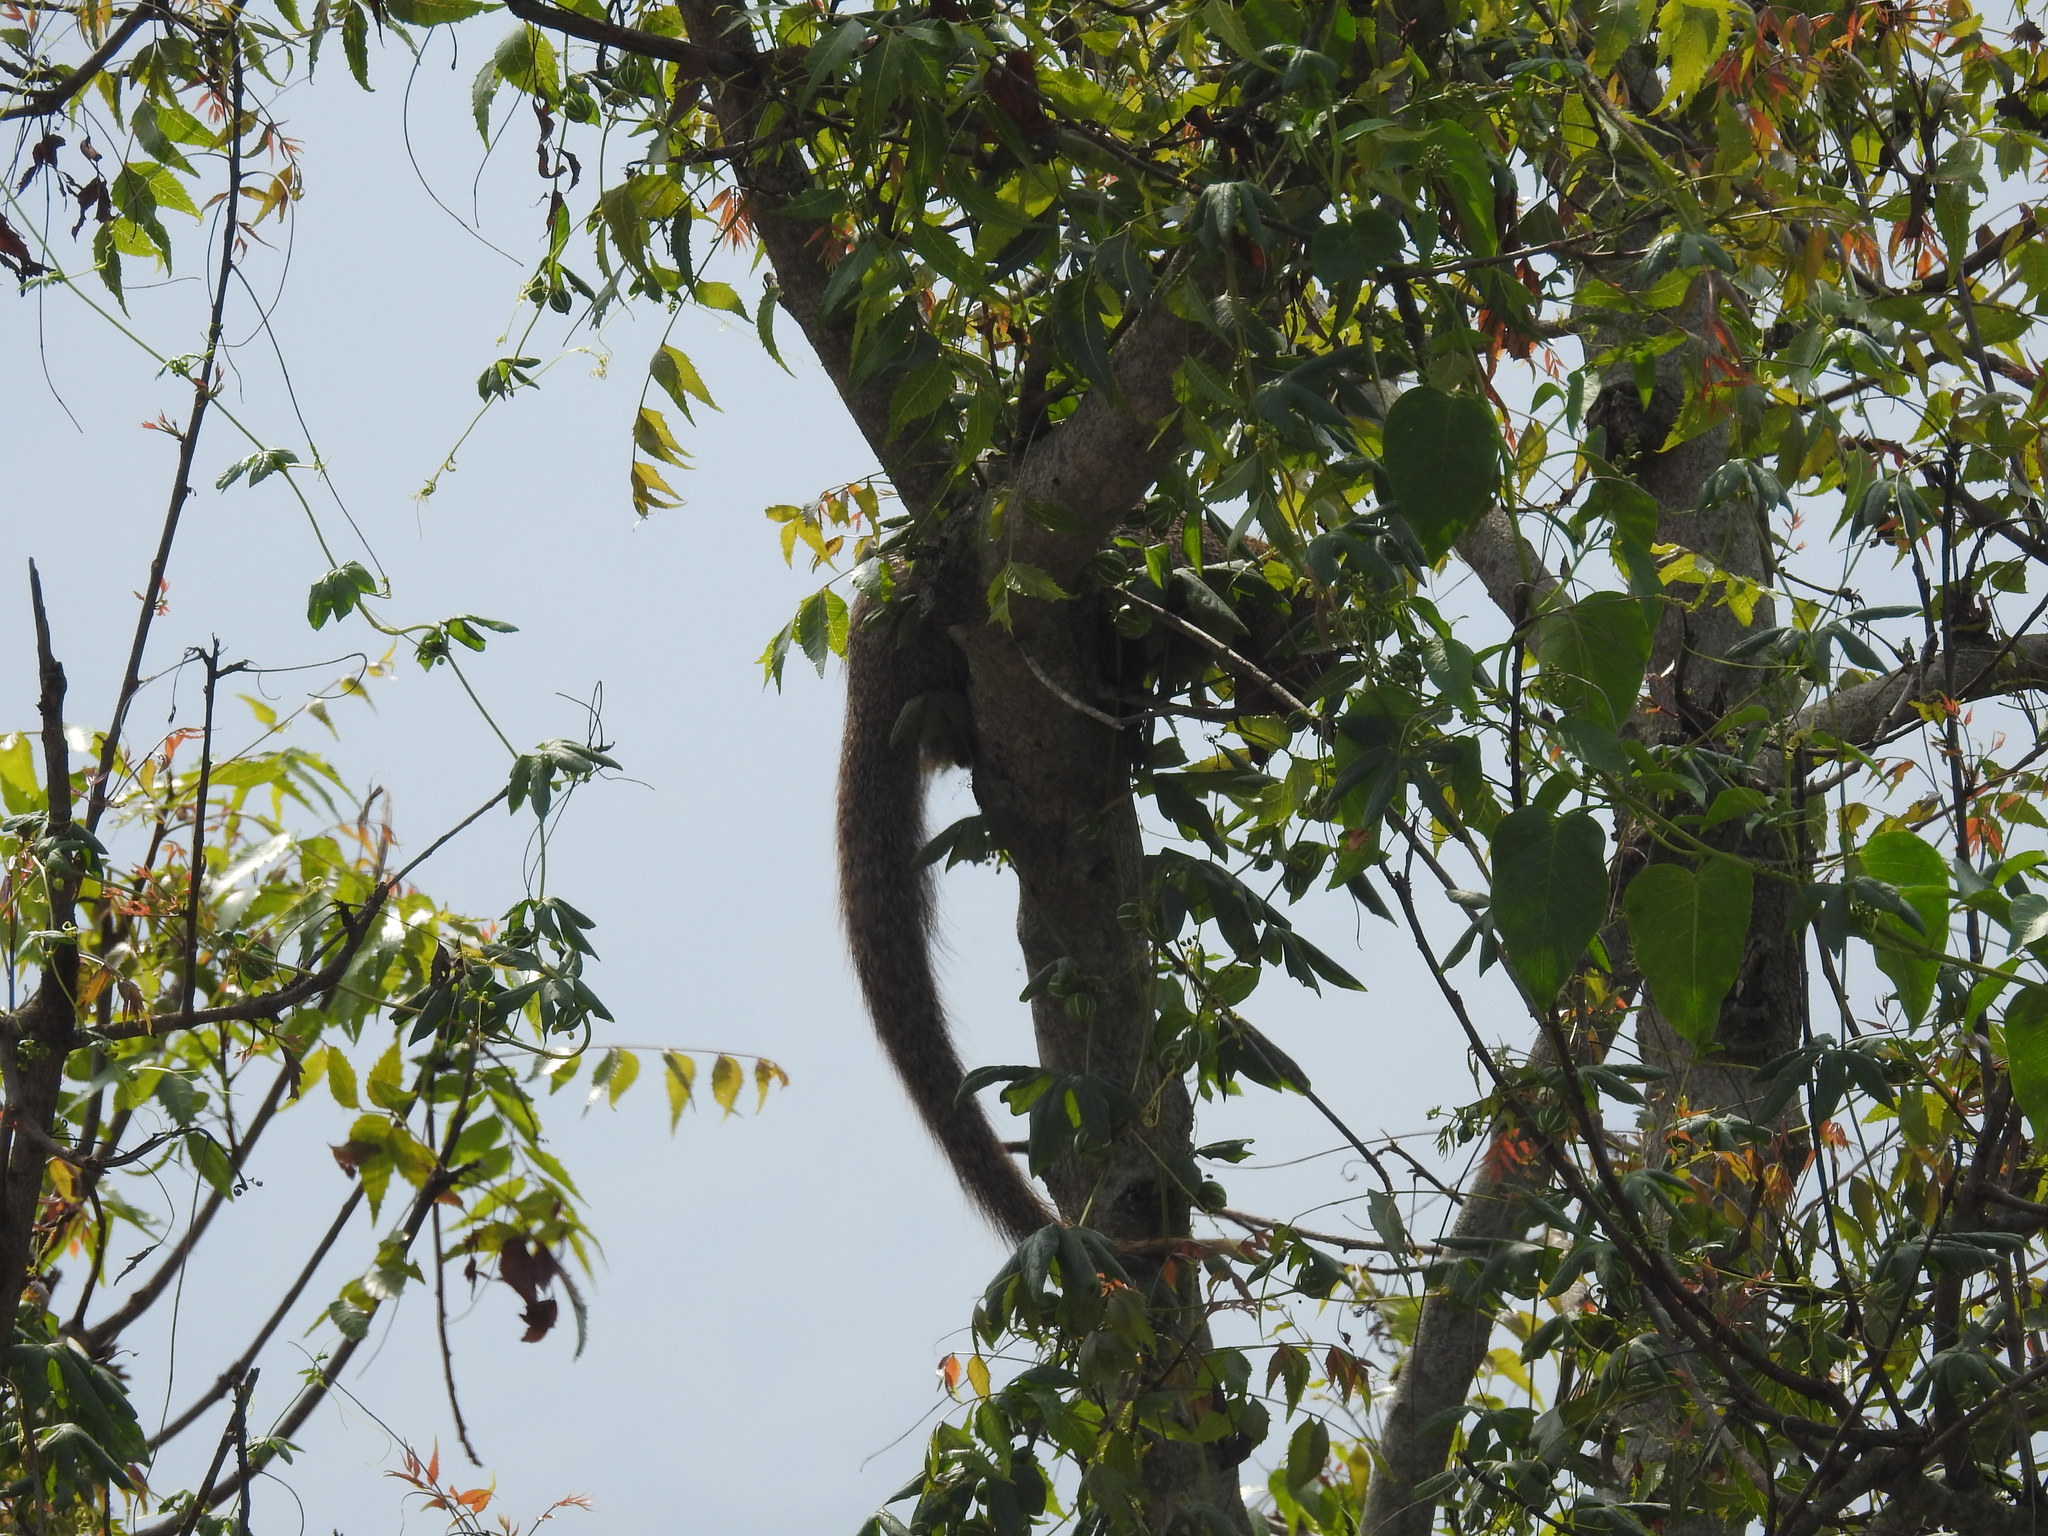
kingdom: Animalia
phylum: Chordata
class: Mammalia
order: Carnivora
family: Herpestidae
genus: Herpestes
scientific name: Herpestes edwardsi
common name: Indian gray mongoose
